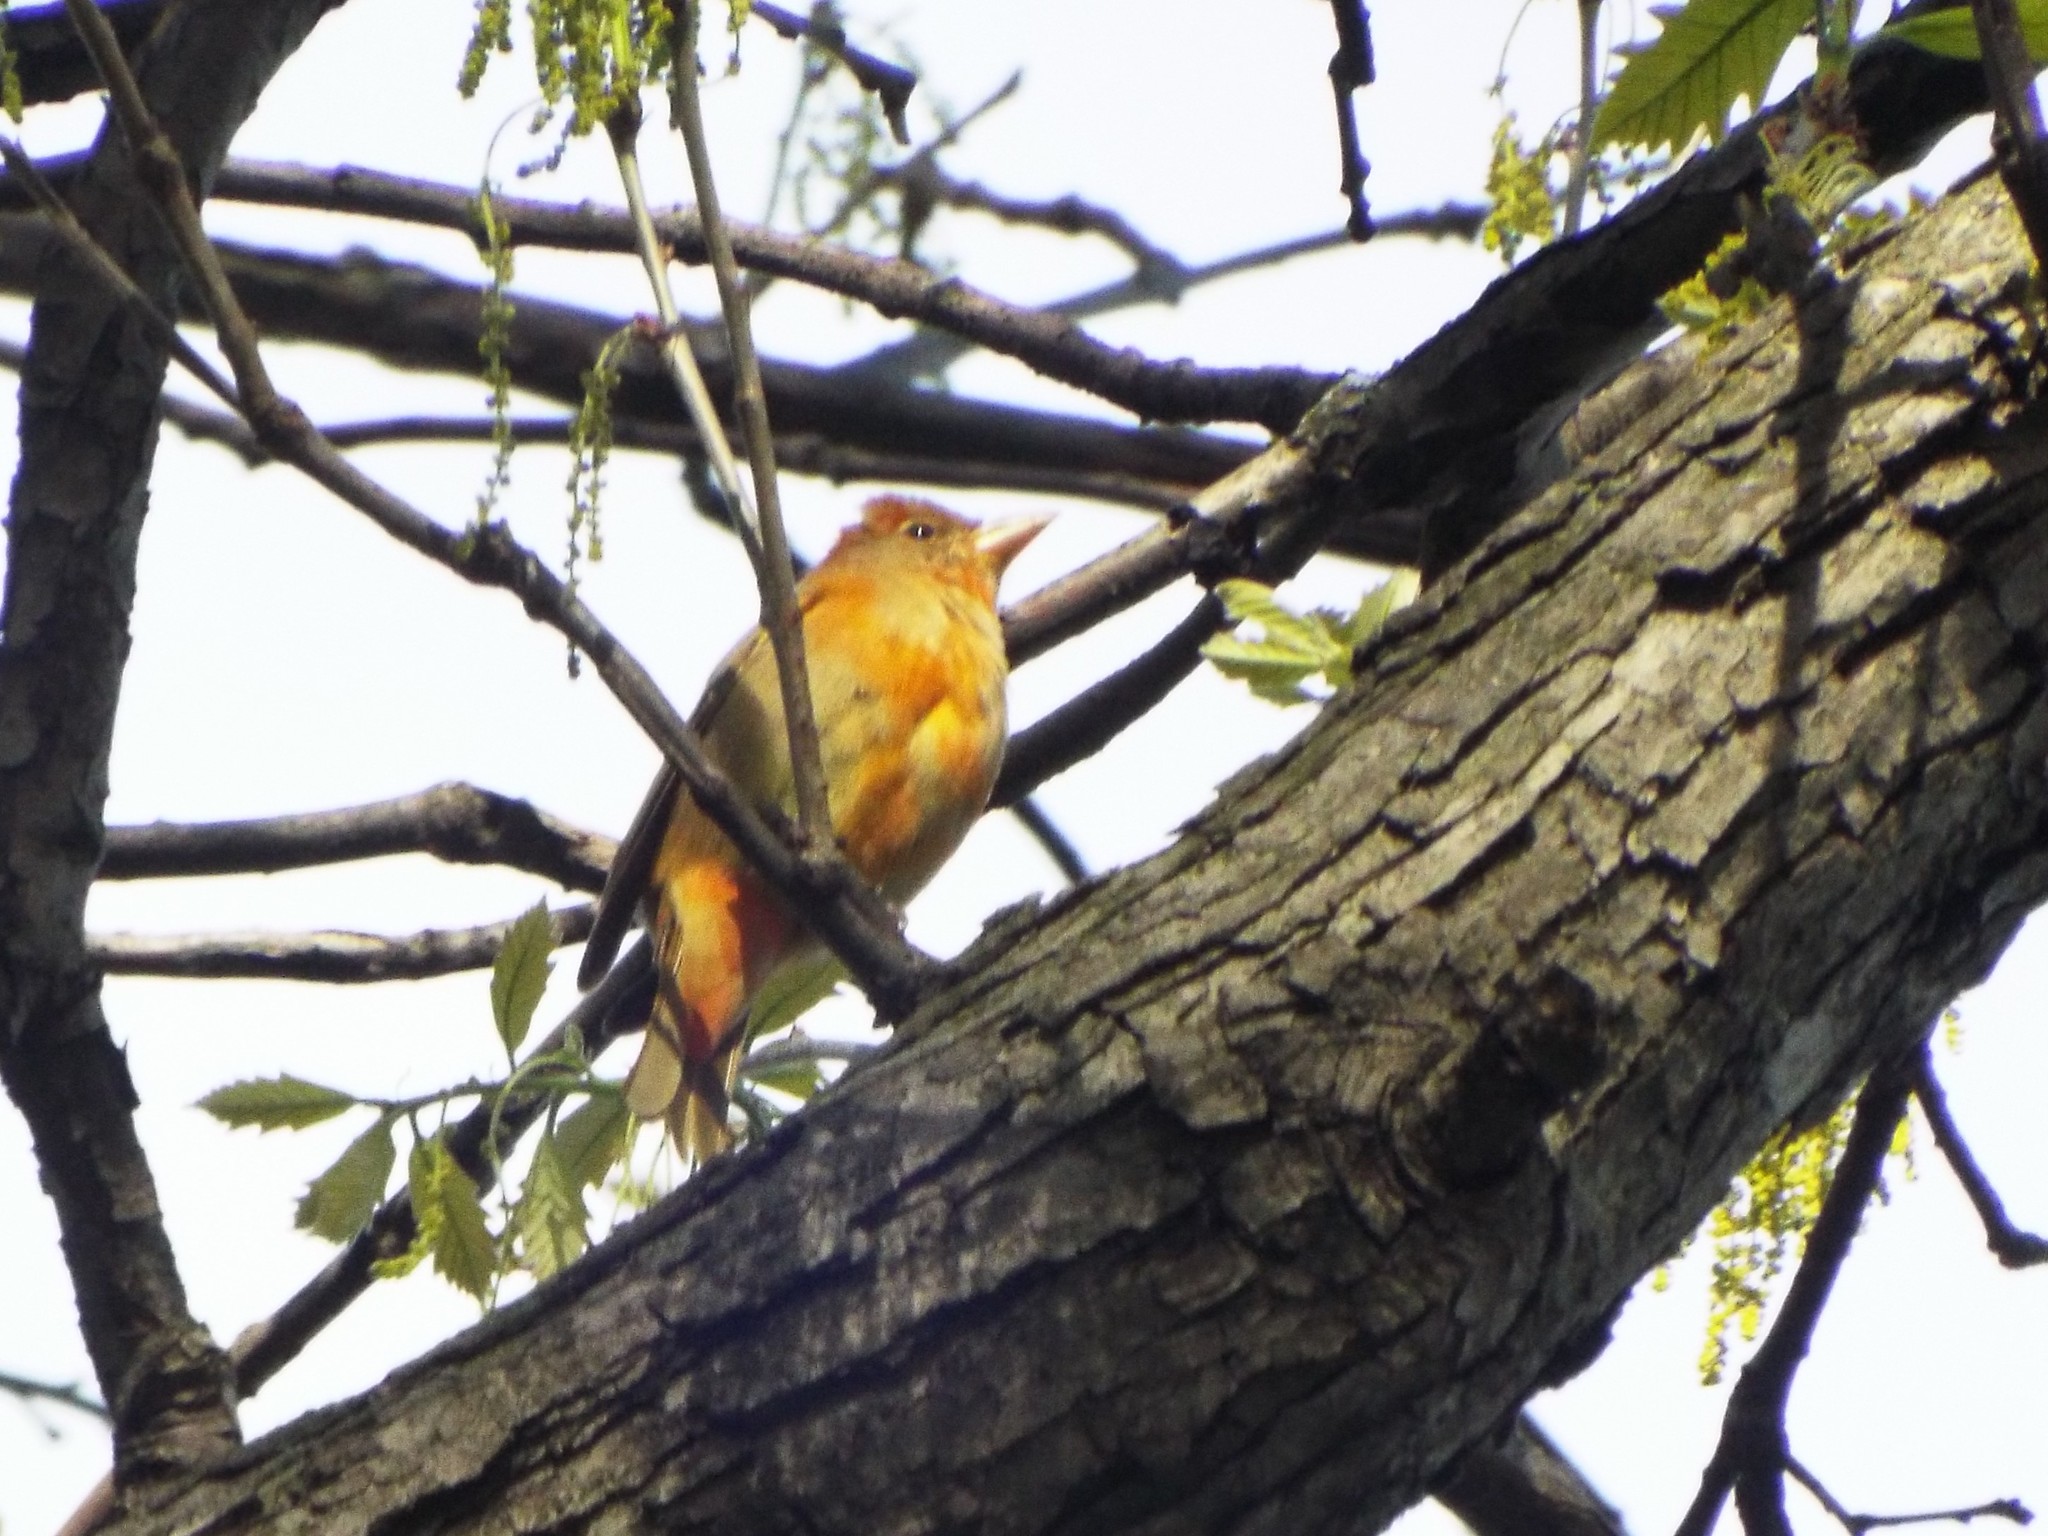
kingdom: Animalia
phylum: Chordata
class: Aves
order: Passeriformes
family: Cardinalidae
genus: Piranga
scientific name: Piranga rubra
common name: Summer tanager
